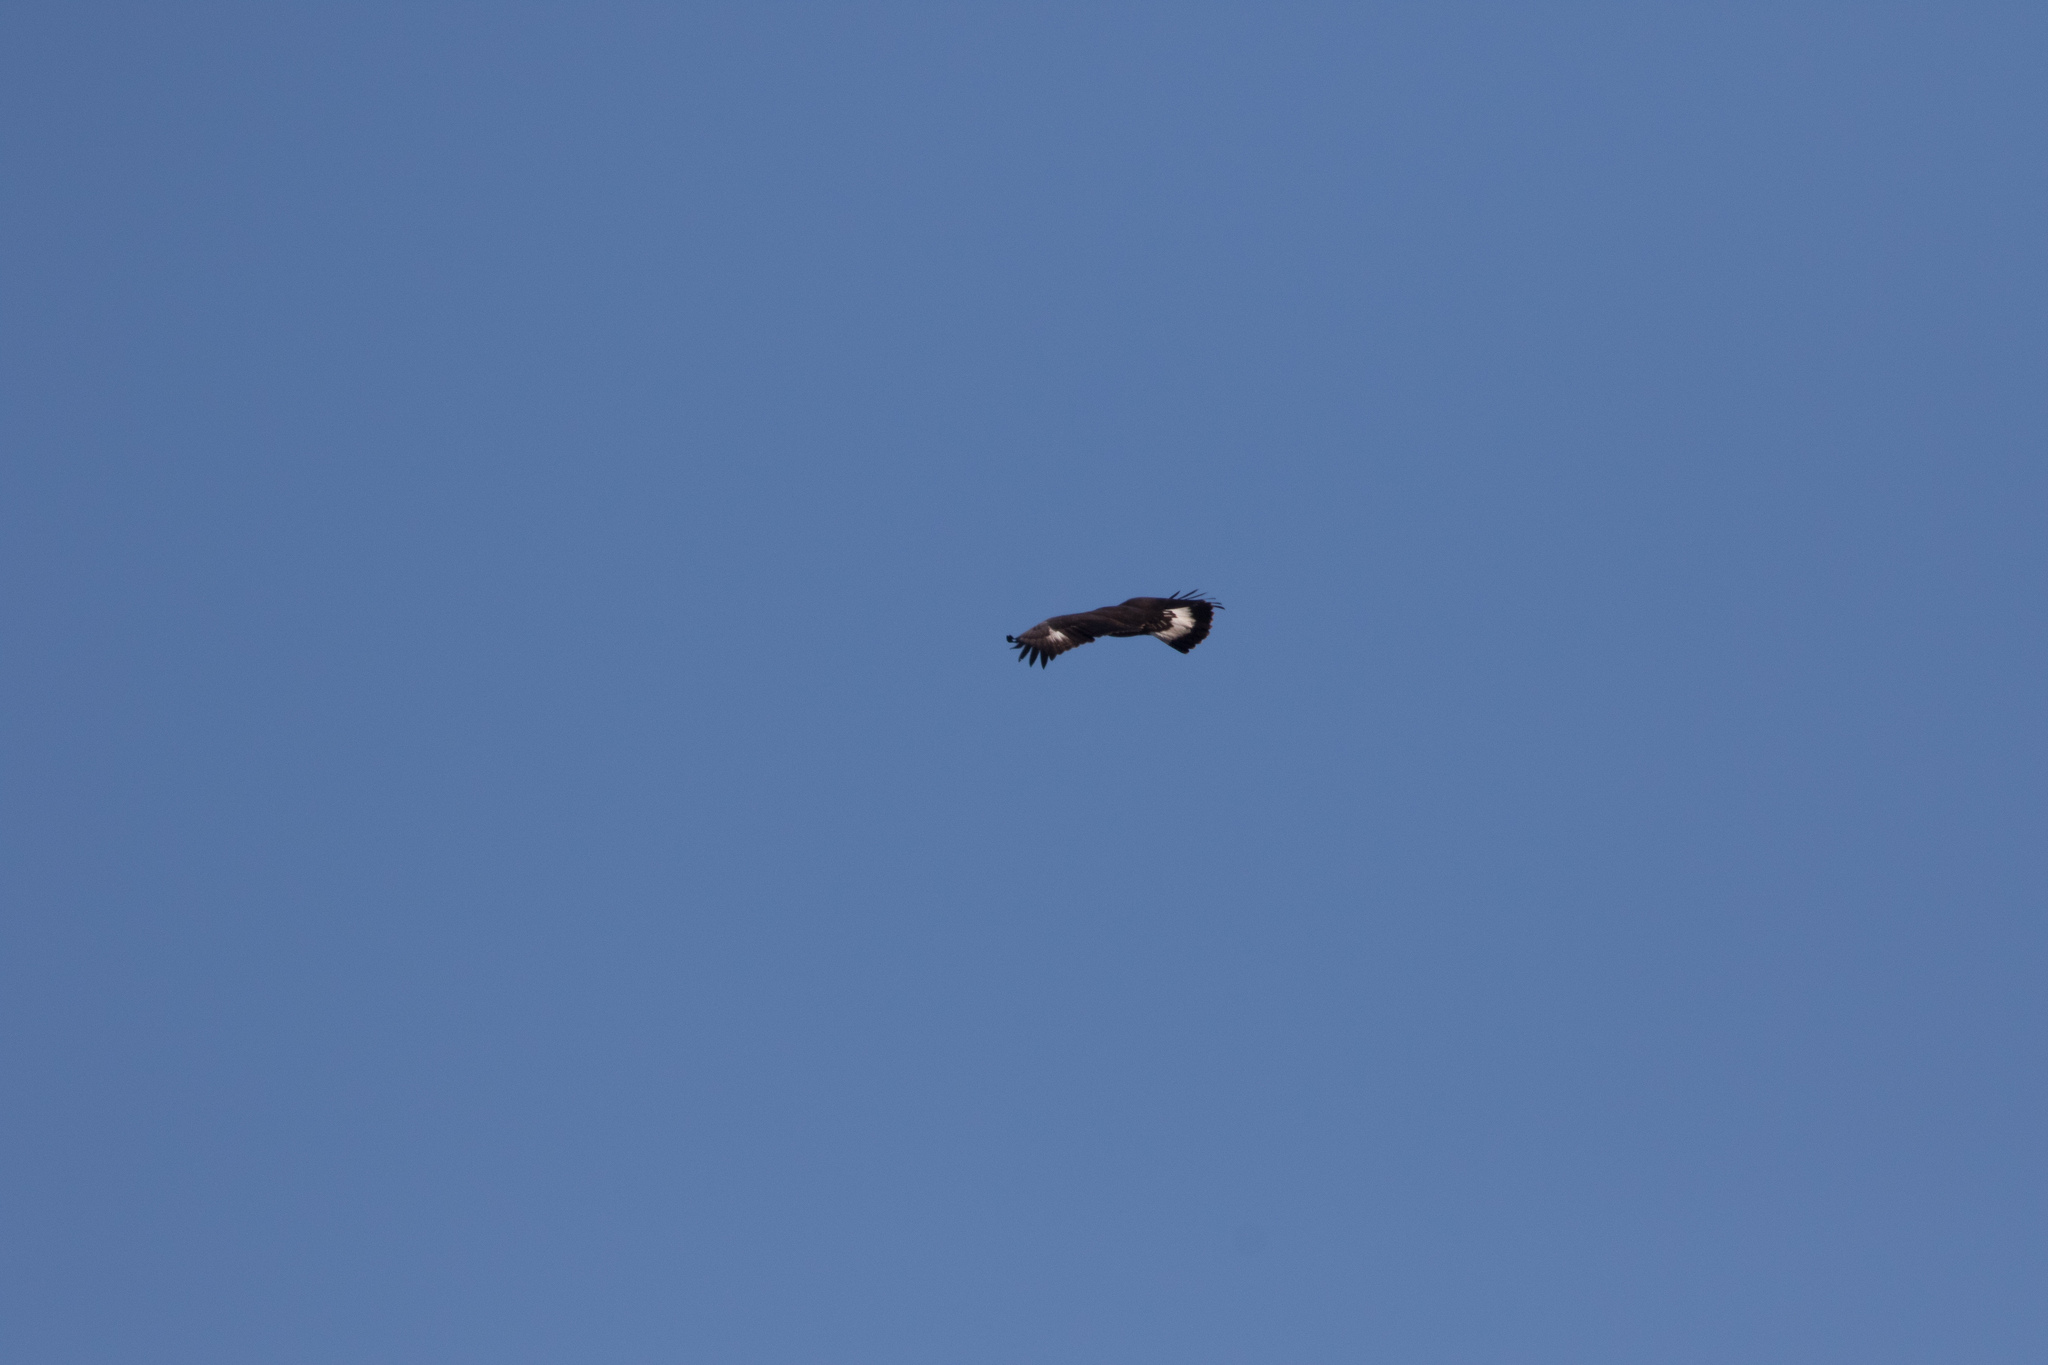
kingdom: Animalia
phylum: Chordata
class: Aves
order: Accipitriformes
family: Accipitridae
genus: Aquila
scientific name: Aquila chrysaetos
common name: Golden eagle
